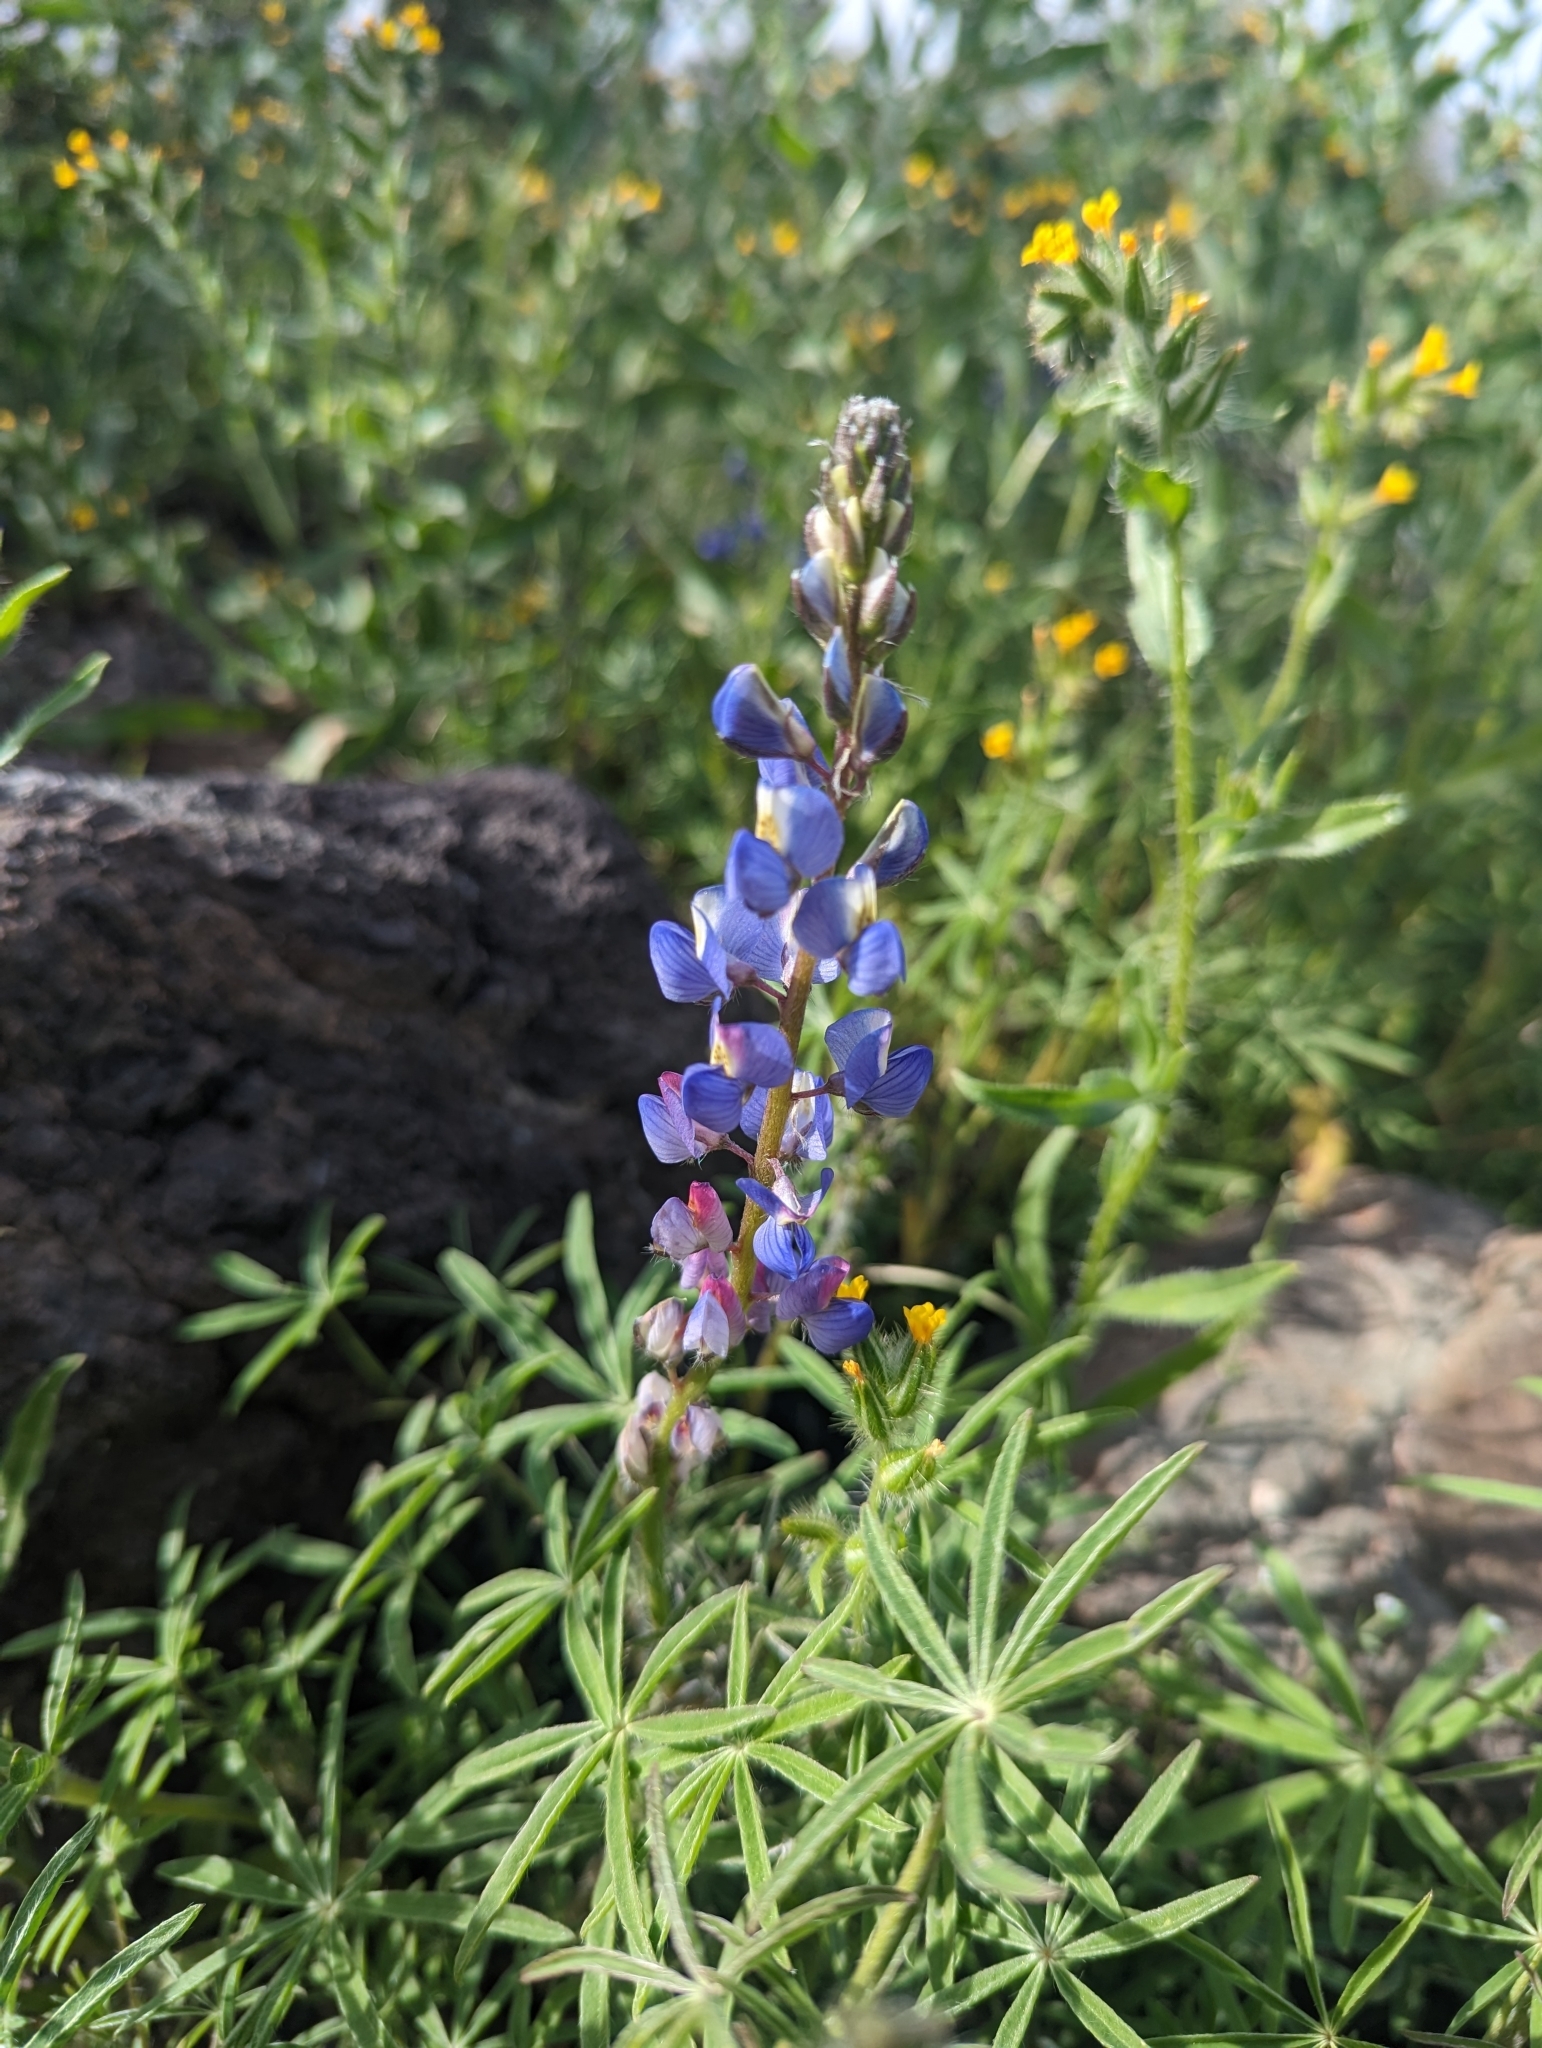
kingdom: Plantae
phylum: Tracheophyta
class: Magnoliopsida
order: Fabales
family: Fabaceae
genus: Lupinus
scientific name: Lupinus sparsiflorus
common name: Coulter's lupine
